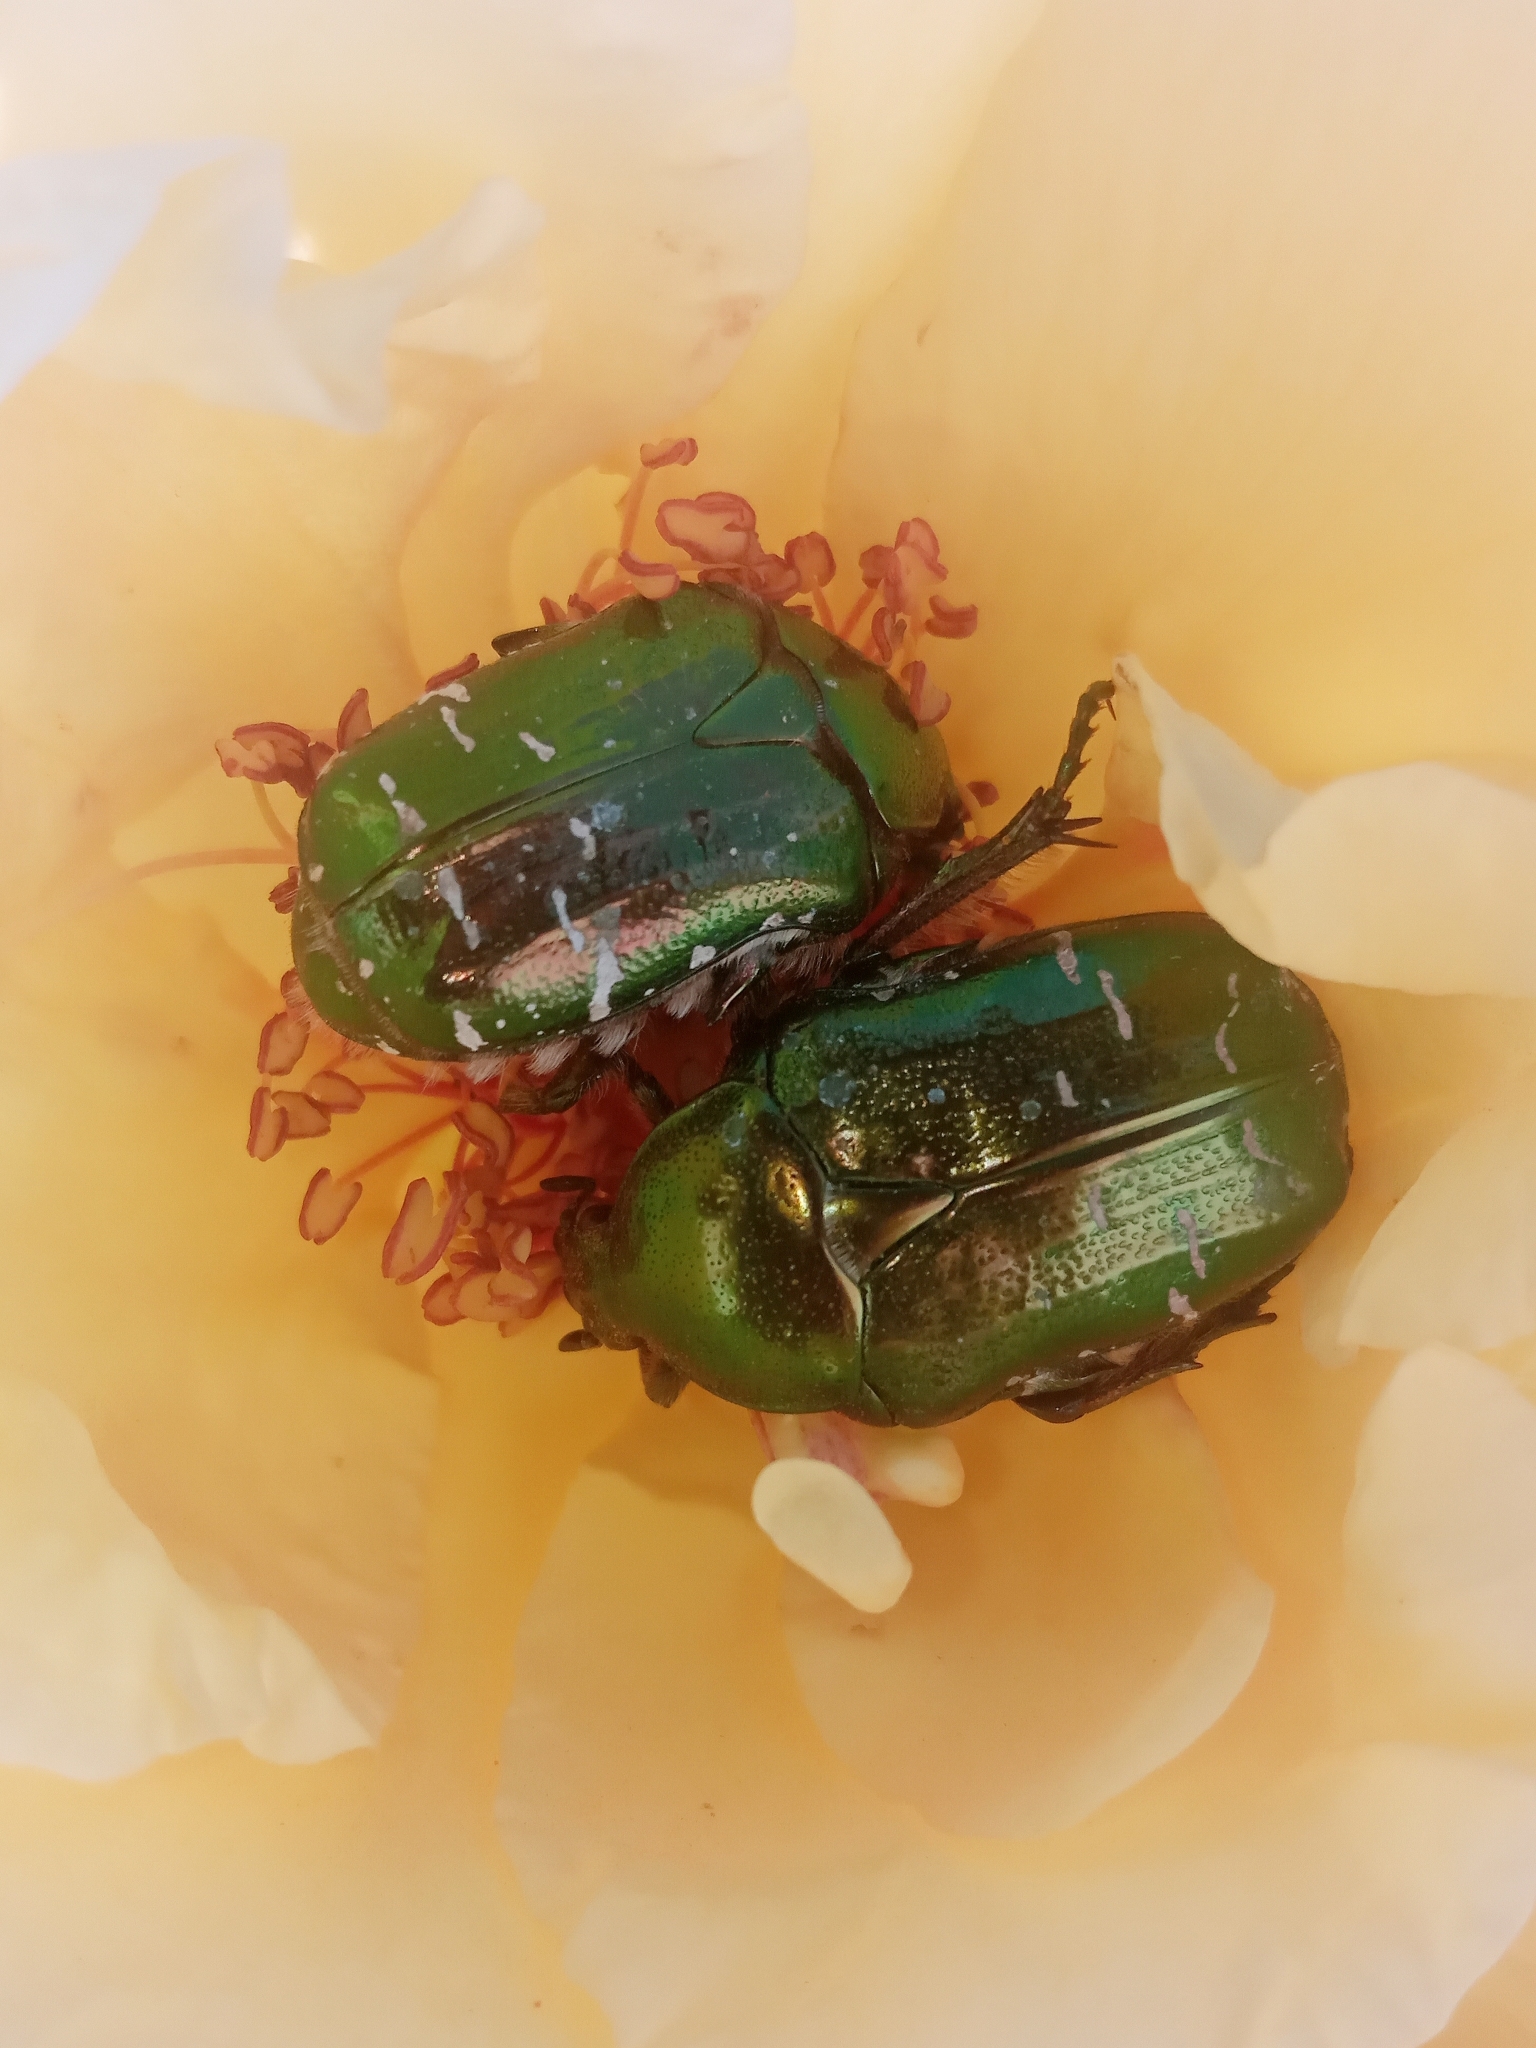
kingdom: Animalia
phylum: Arthropoda
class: Insecta
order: Coleoptera
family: Scarabaeidae
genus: Cetonia
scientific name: Cetonia aurata
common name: Rose chafer
